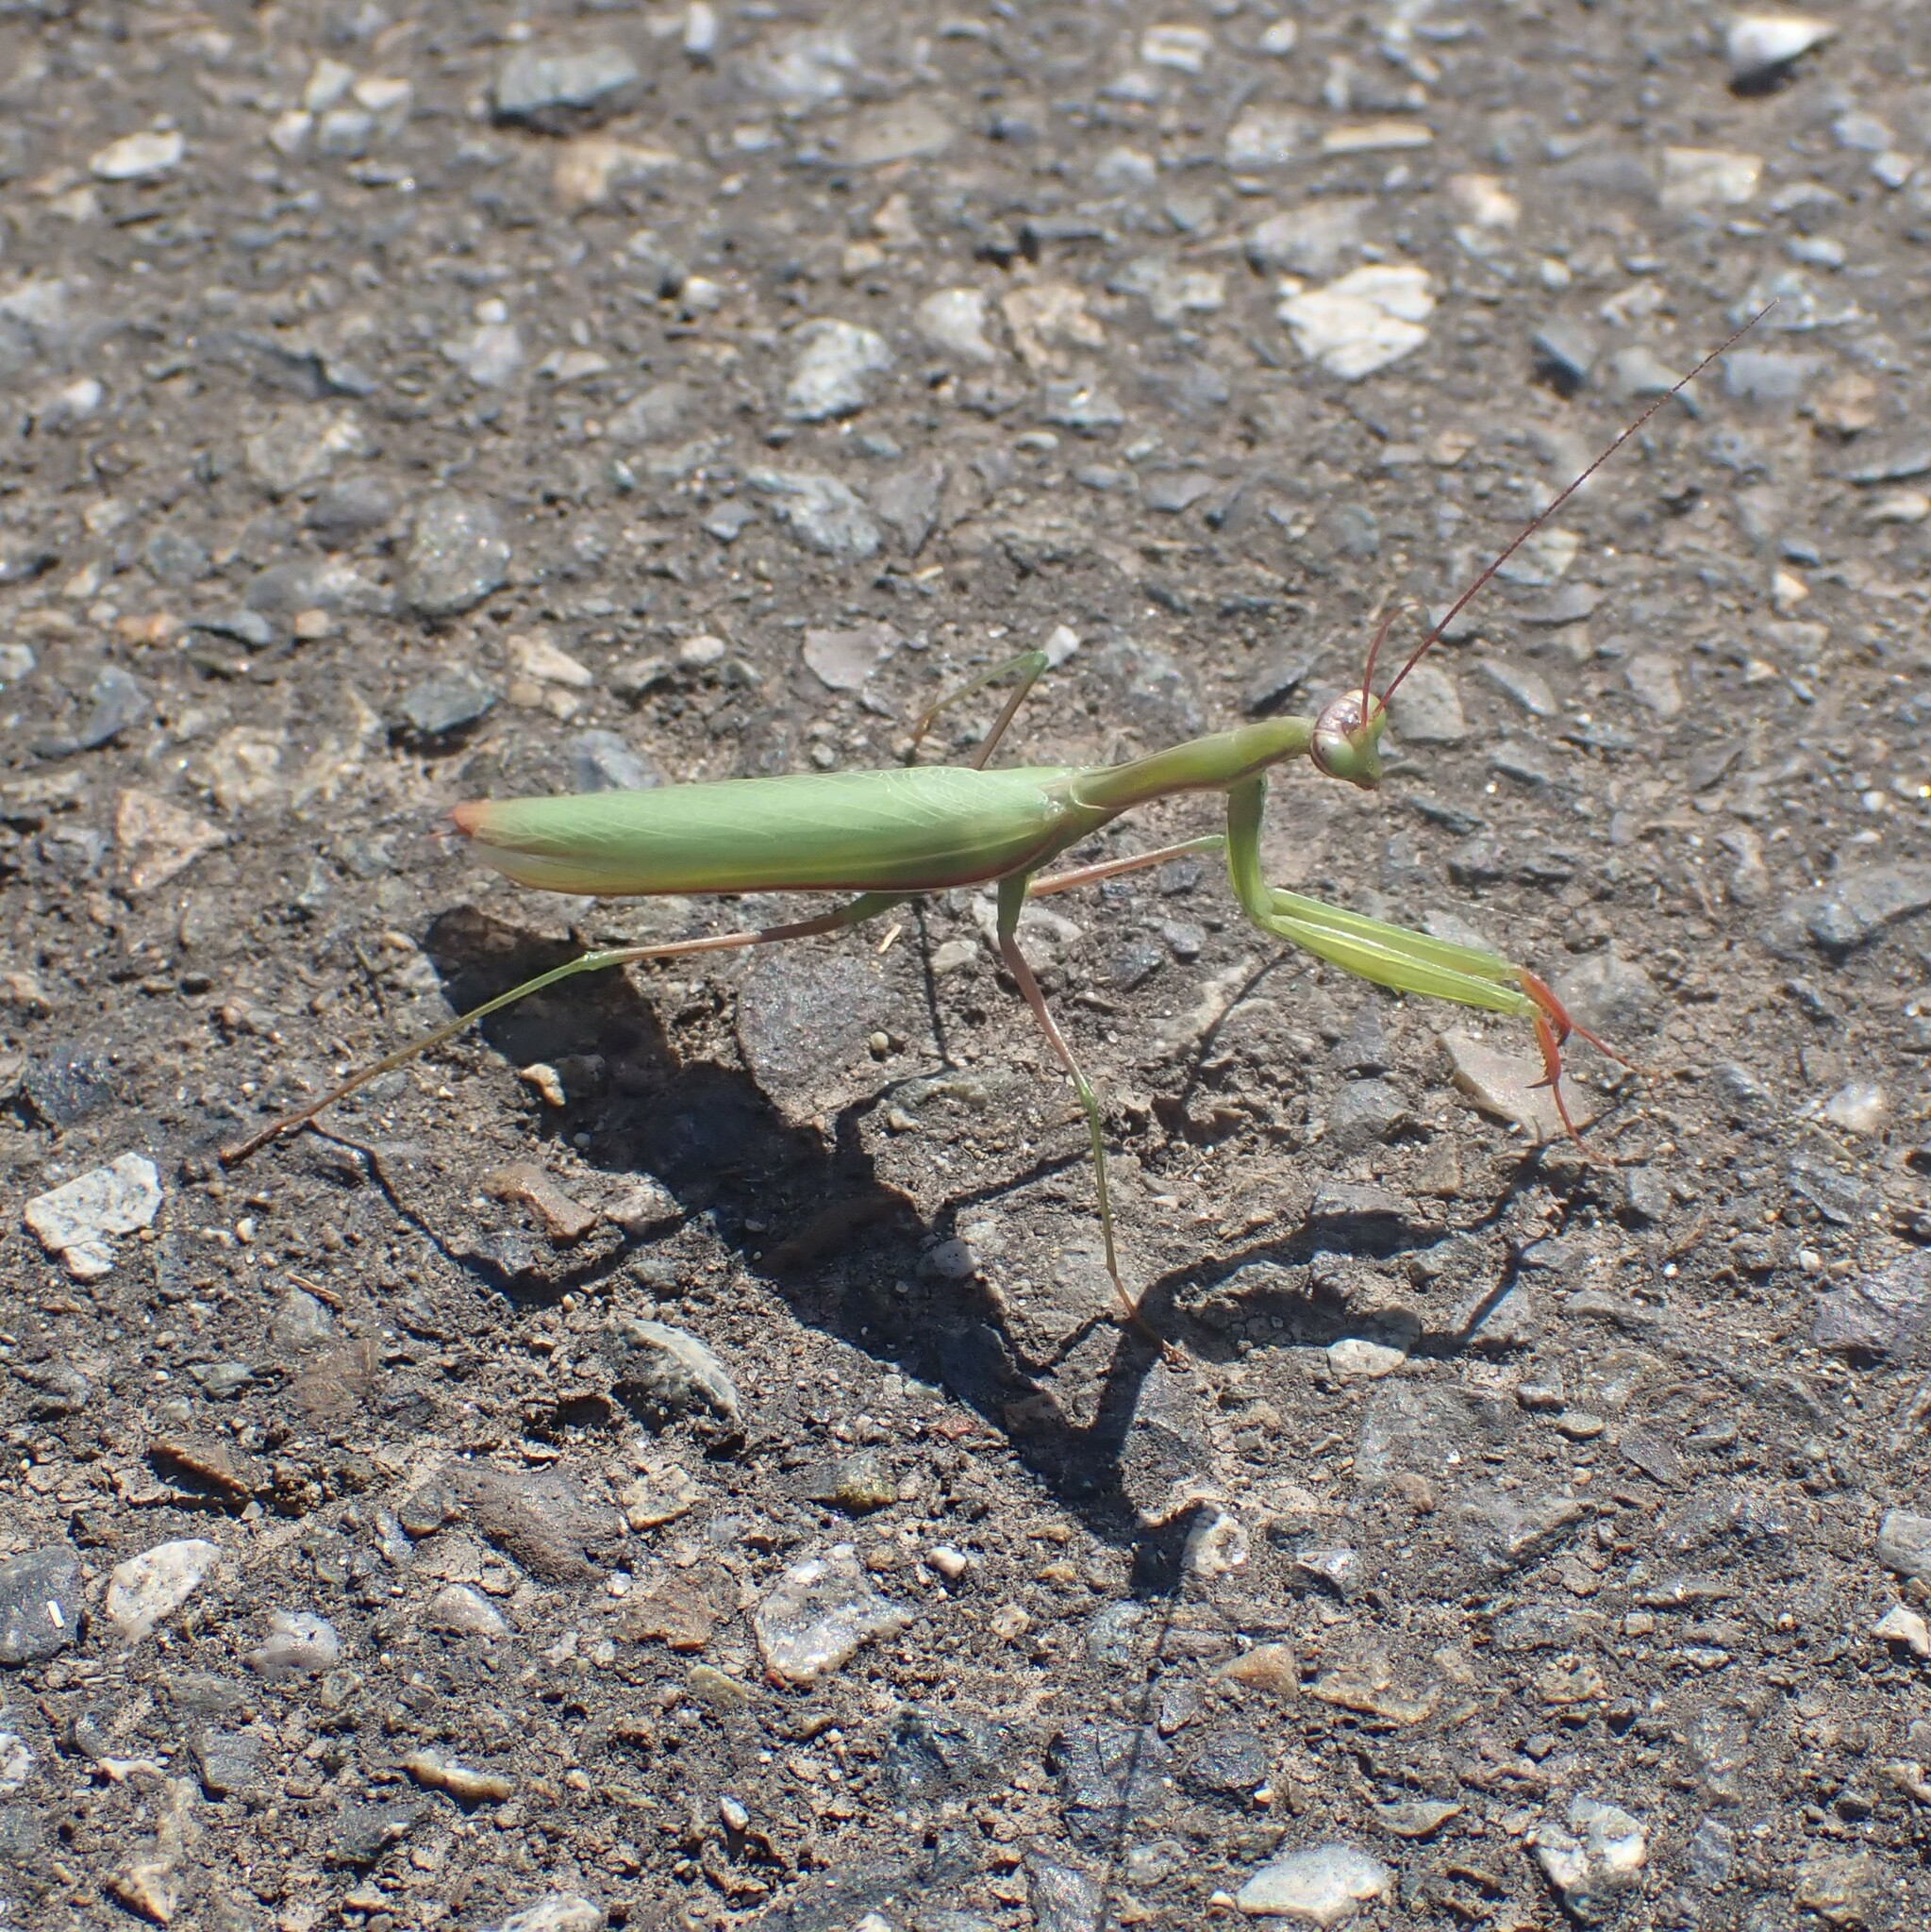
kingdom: Animalia
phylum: Arthropoda
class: Insecta
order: Mantodea
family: Mantidae
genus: Mantis
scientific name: Mantis religiosa
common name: Praying mantis
